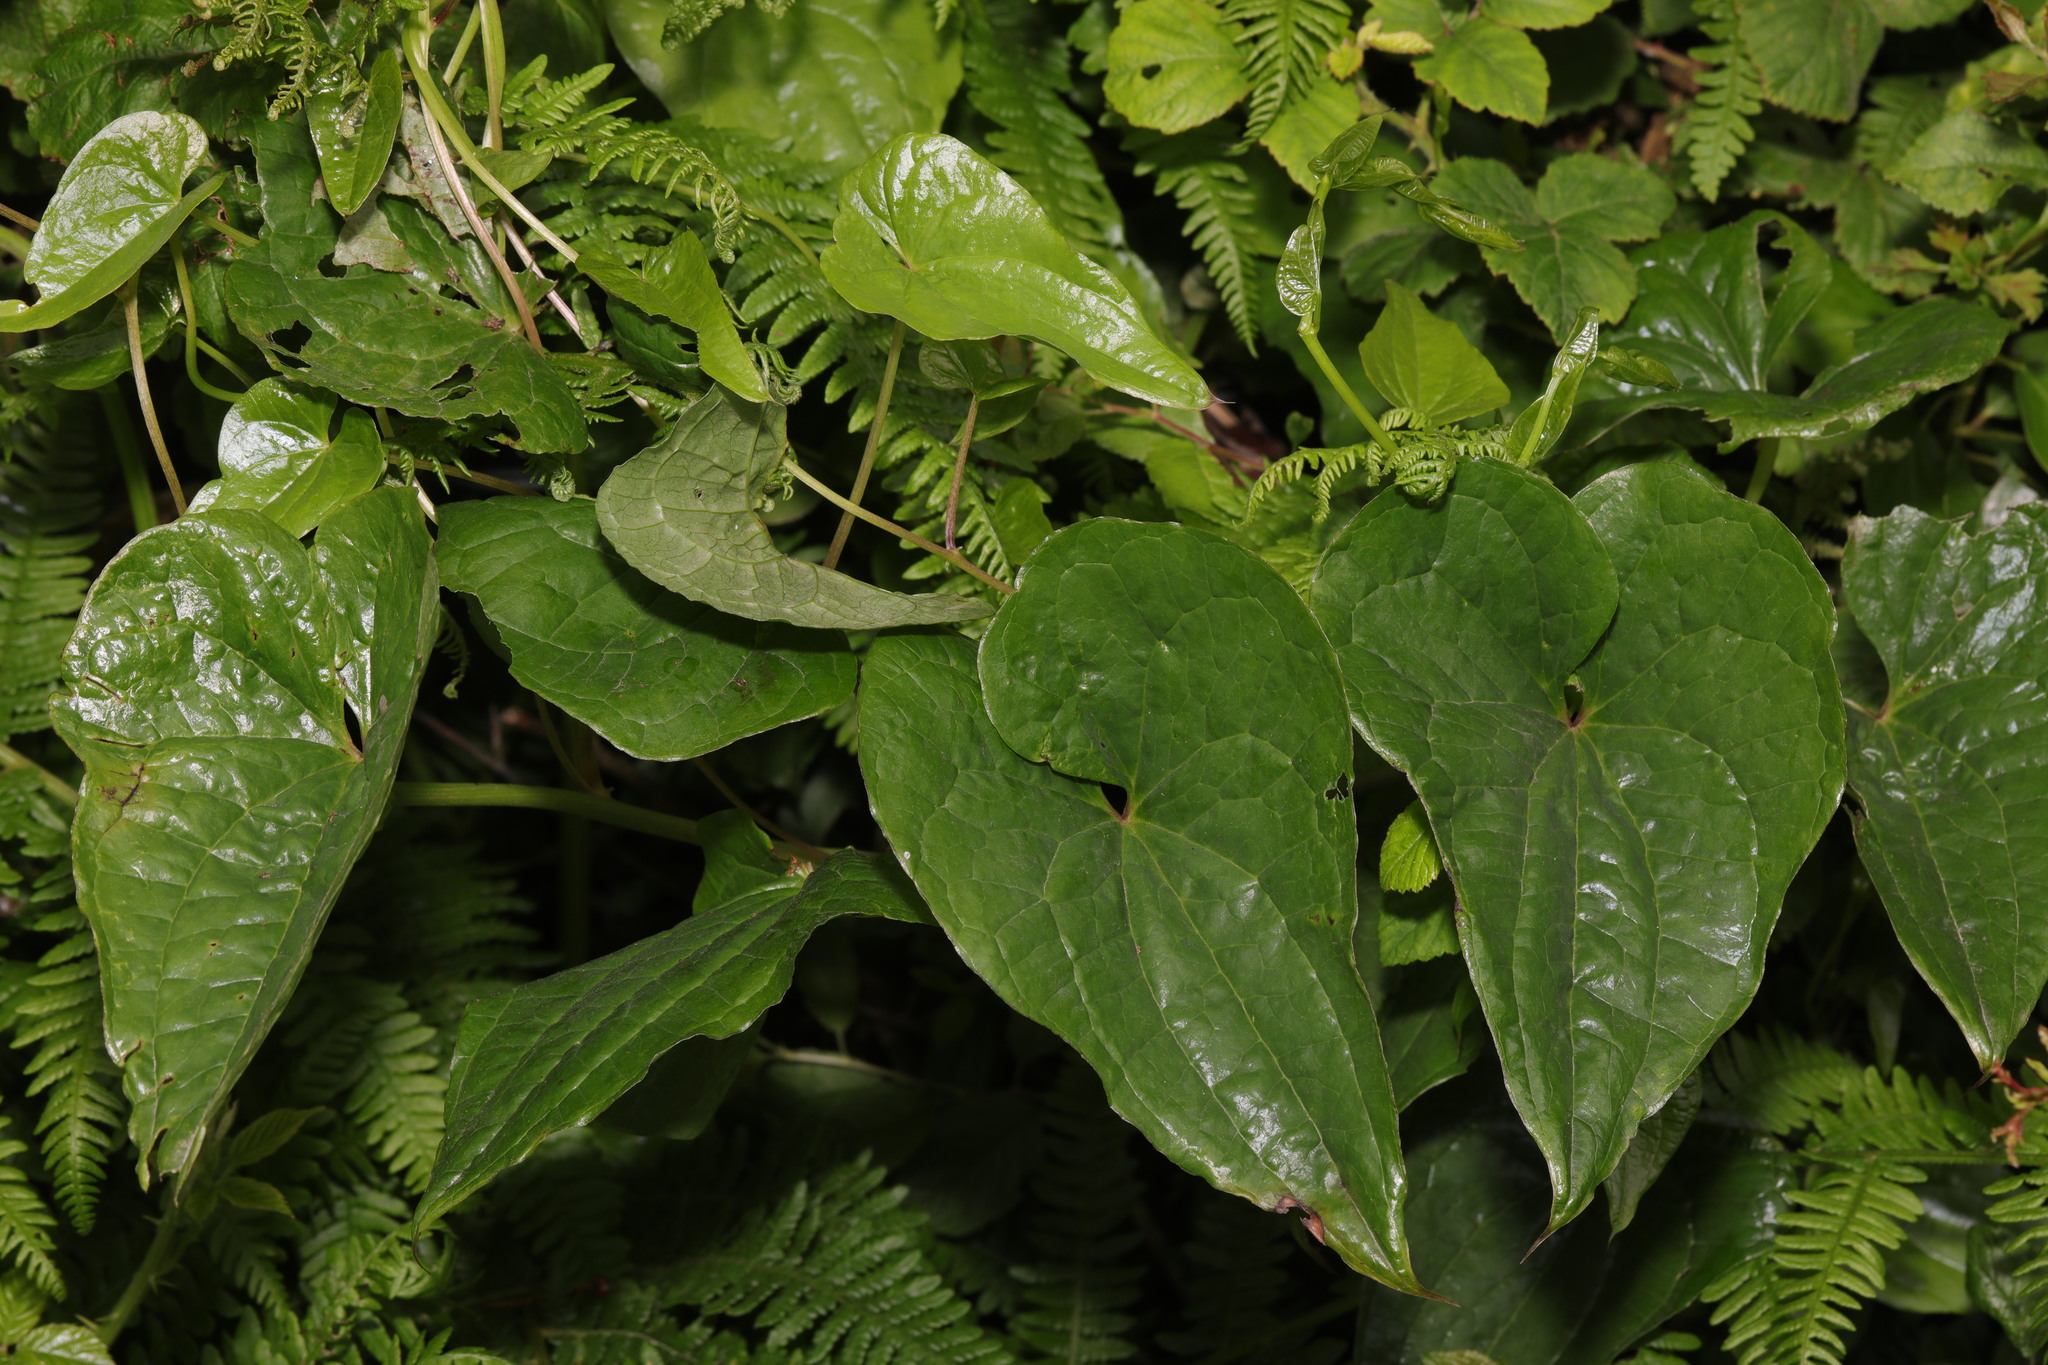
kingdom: Plantae
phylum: Tracheophyta
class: Liliopsida
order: Dioscoreales
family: Dioscoreaceae
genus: Dioscorea
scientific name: Dioscorea communis
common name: Black-bindweed
